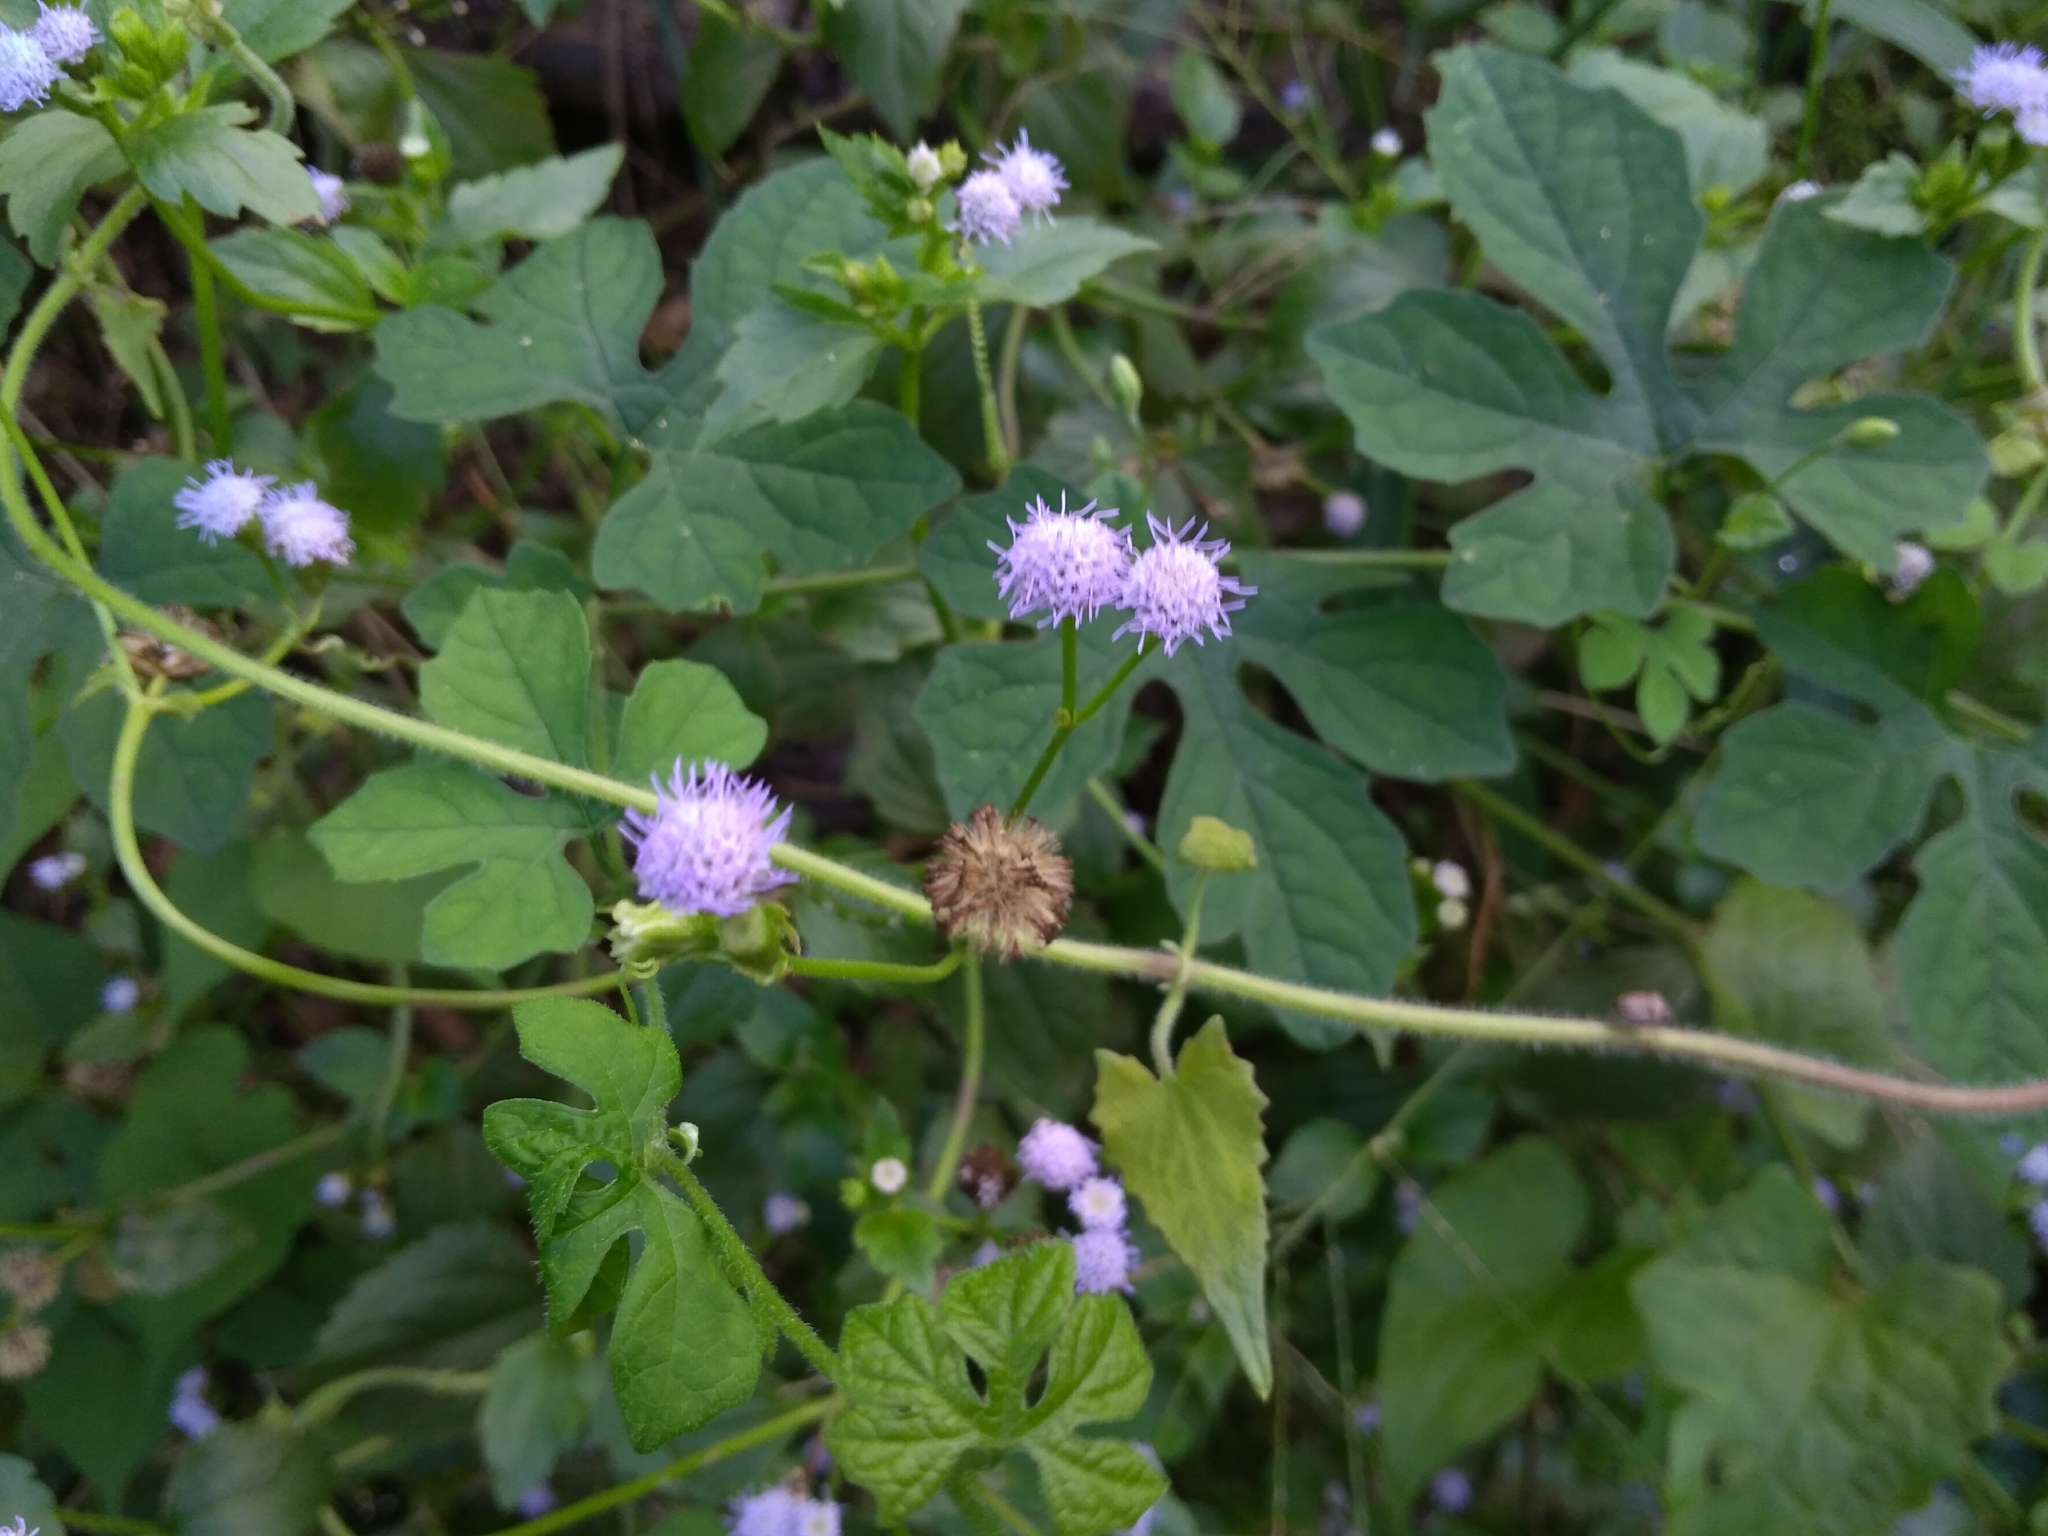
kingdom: Plantae
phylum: Tracheophyta
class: Magnoliopsida
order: Asterales
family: Asteraceae
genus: Ageratum
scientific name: Ageratum houstonianum
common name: Bluemink
